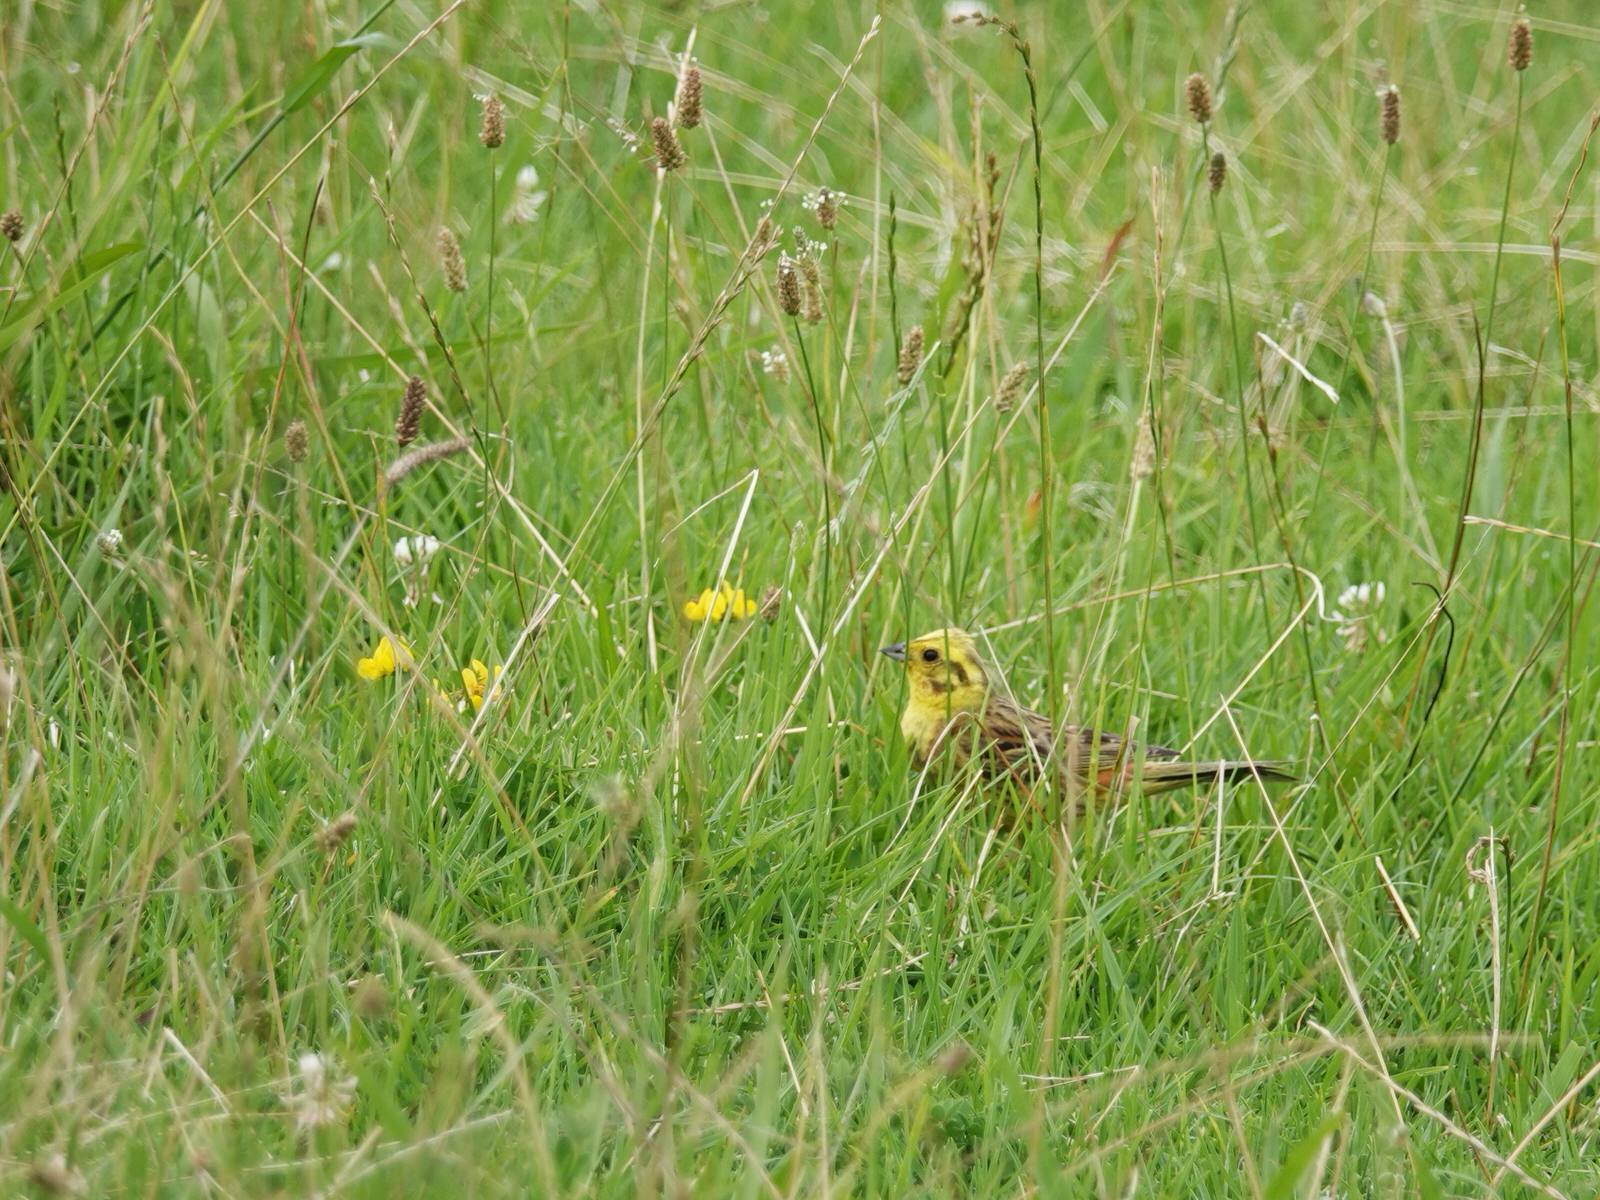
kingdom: Animalia
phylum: Chordata
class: Aves
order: Passeriformes
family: Emberizidae
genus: Emberiza
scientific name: Emberiza citrinella
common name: Yellowhammer
